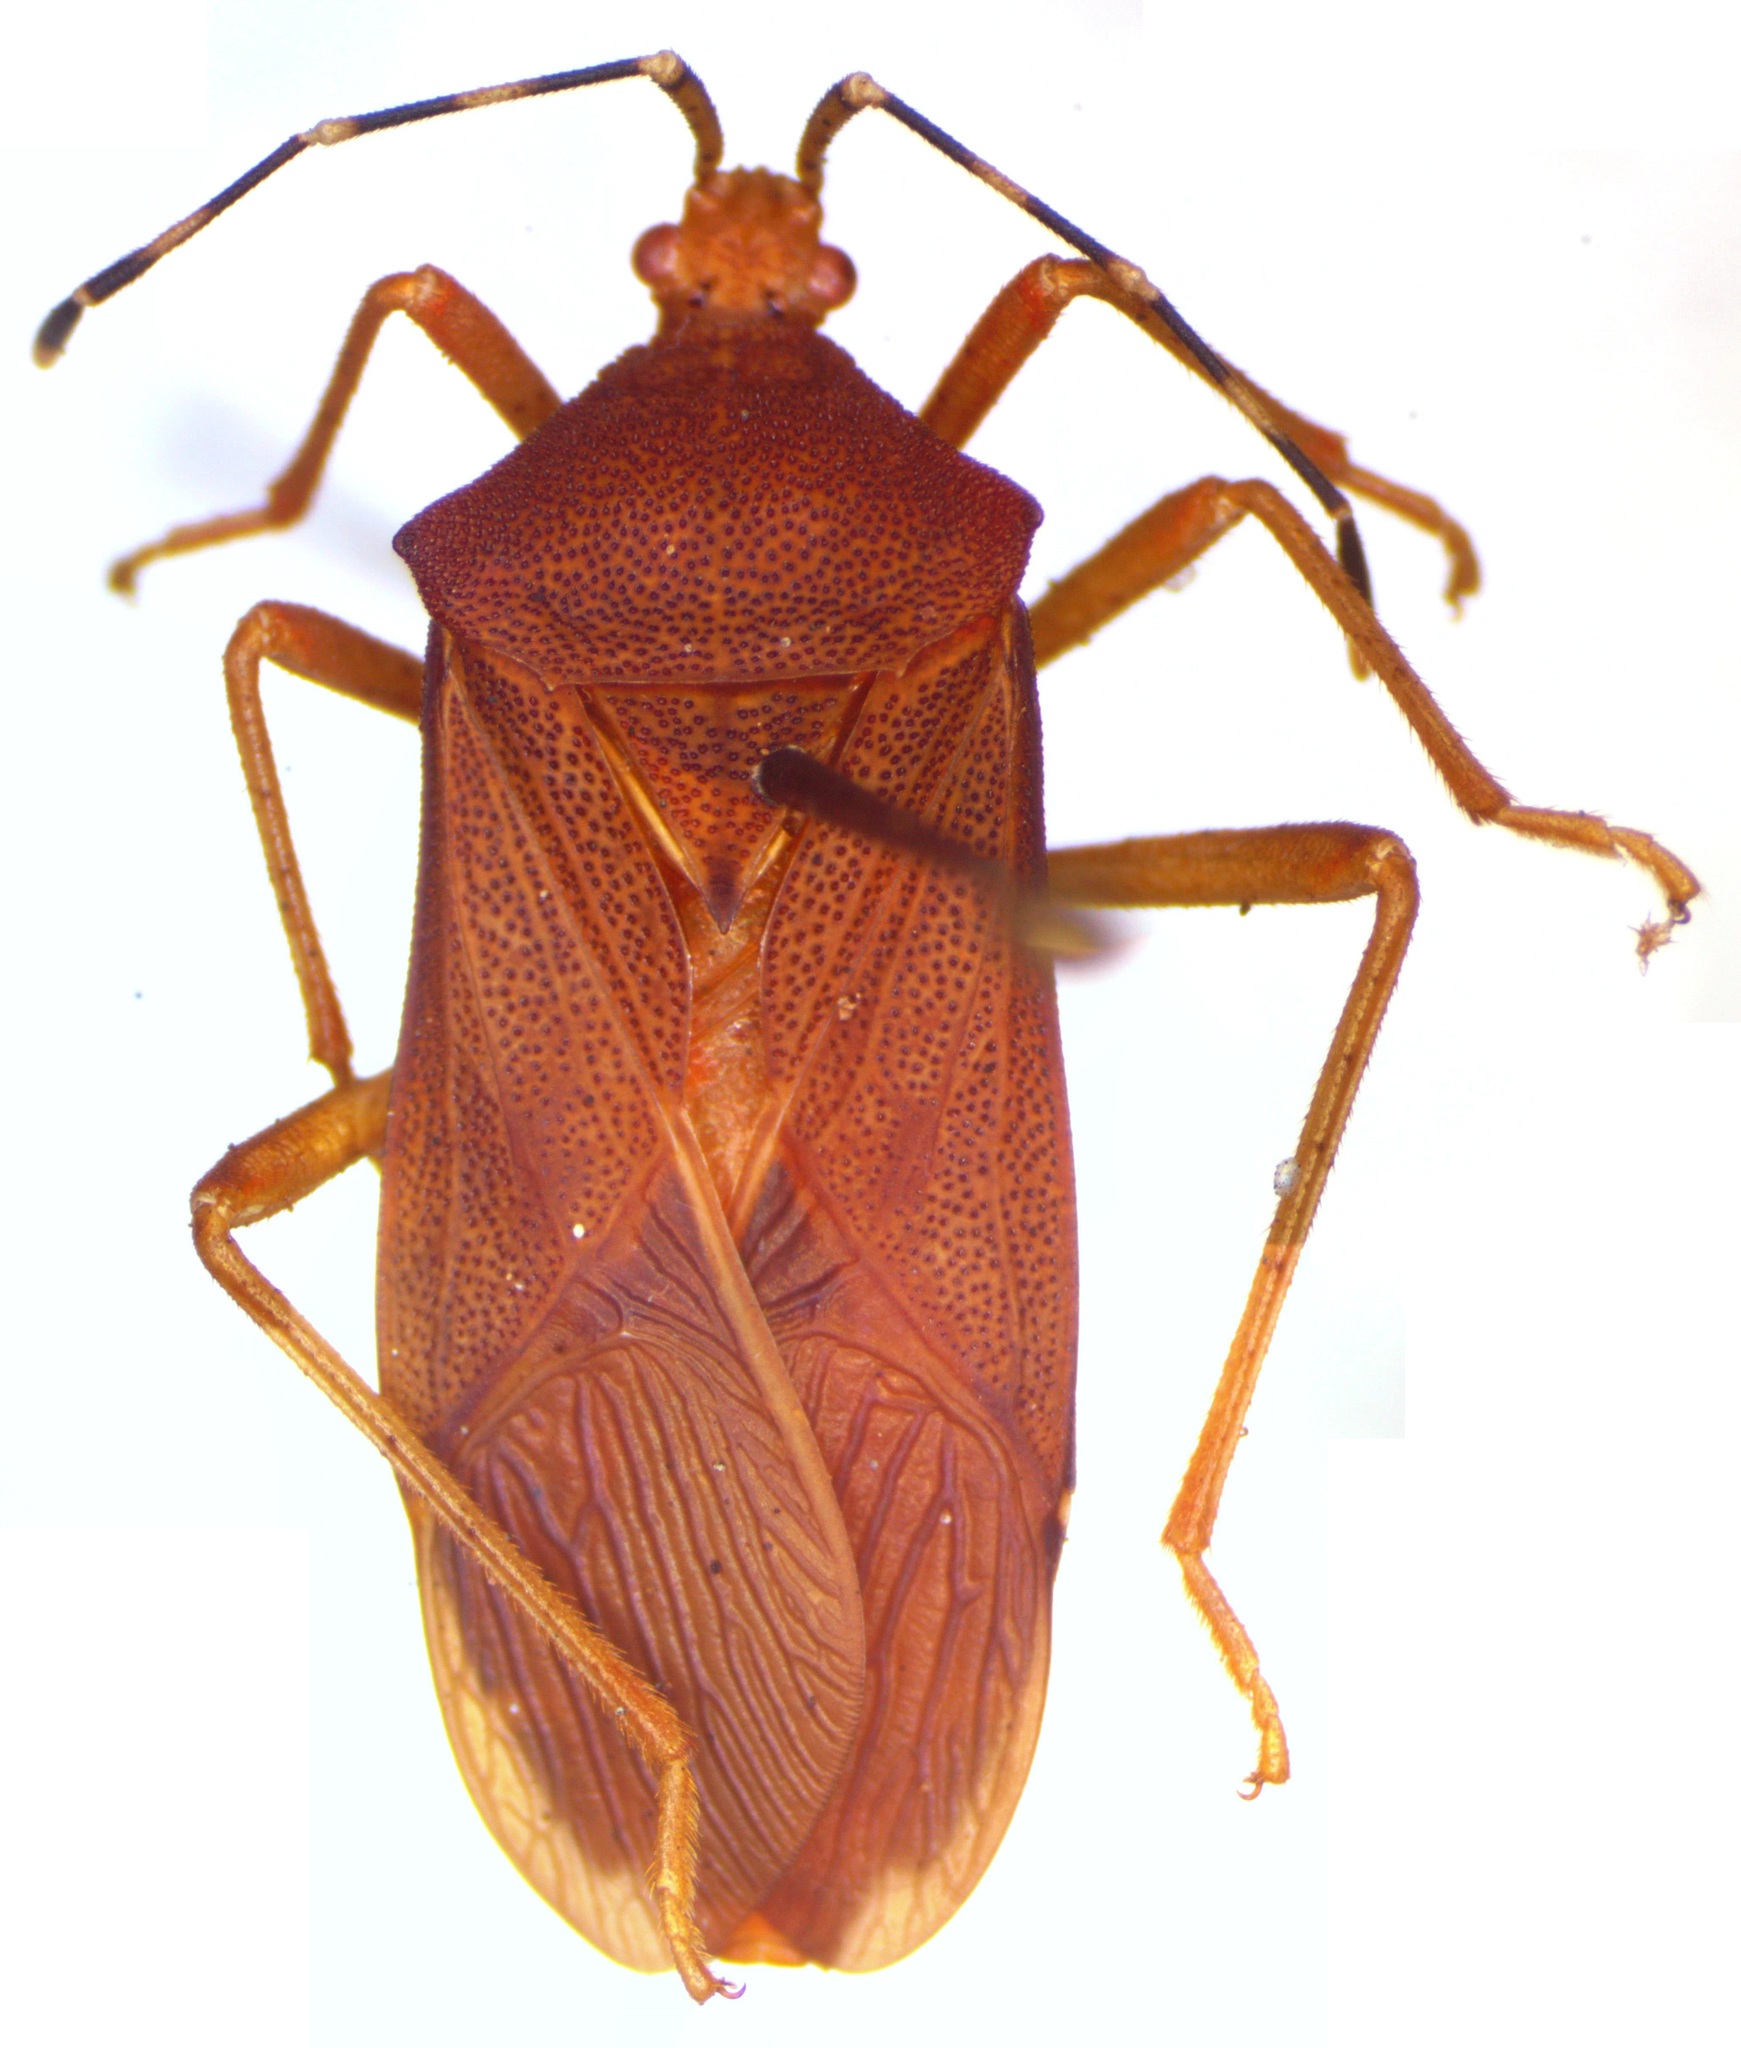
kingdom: Animalia
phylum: Arthropoda
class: Insecta
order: Hemiptera
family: Coreidae
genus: Anasa
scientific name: Anasa bellator
